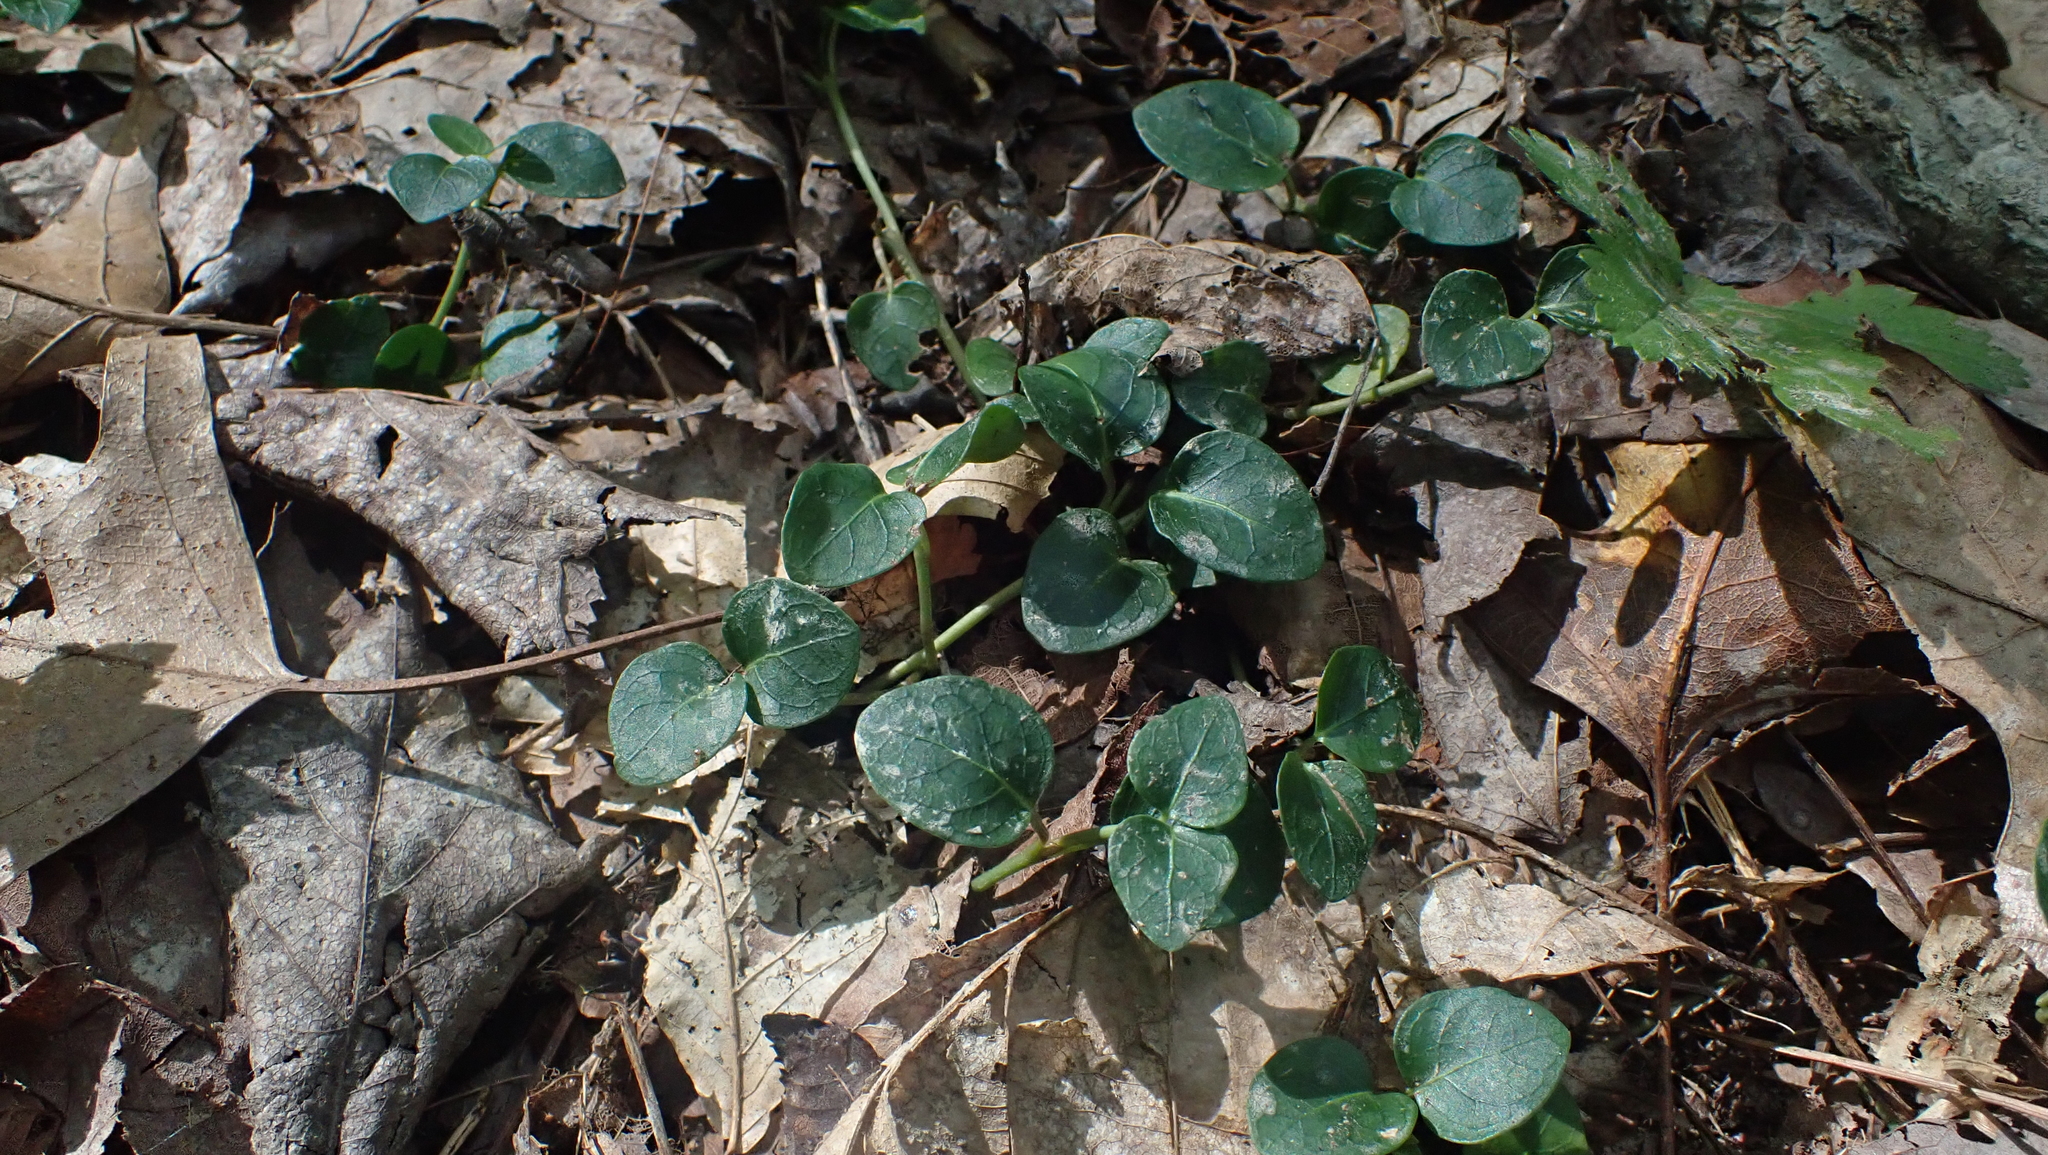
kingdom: Plantae
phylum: Tracheophyta
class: Magnoliopsida
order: Gentianales
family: Rubiaceae
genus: Mitchella
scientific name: Mitchella repens
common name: Partridge-berry
